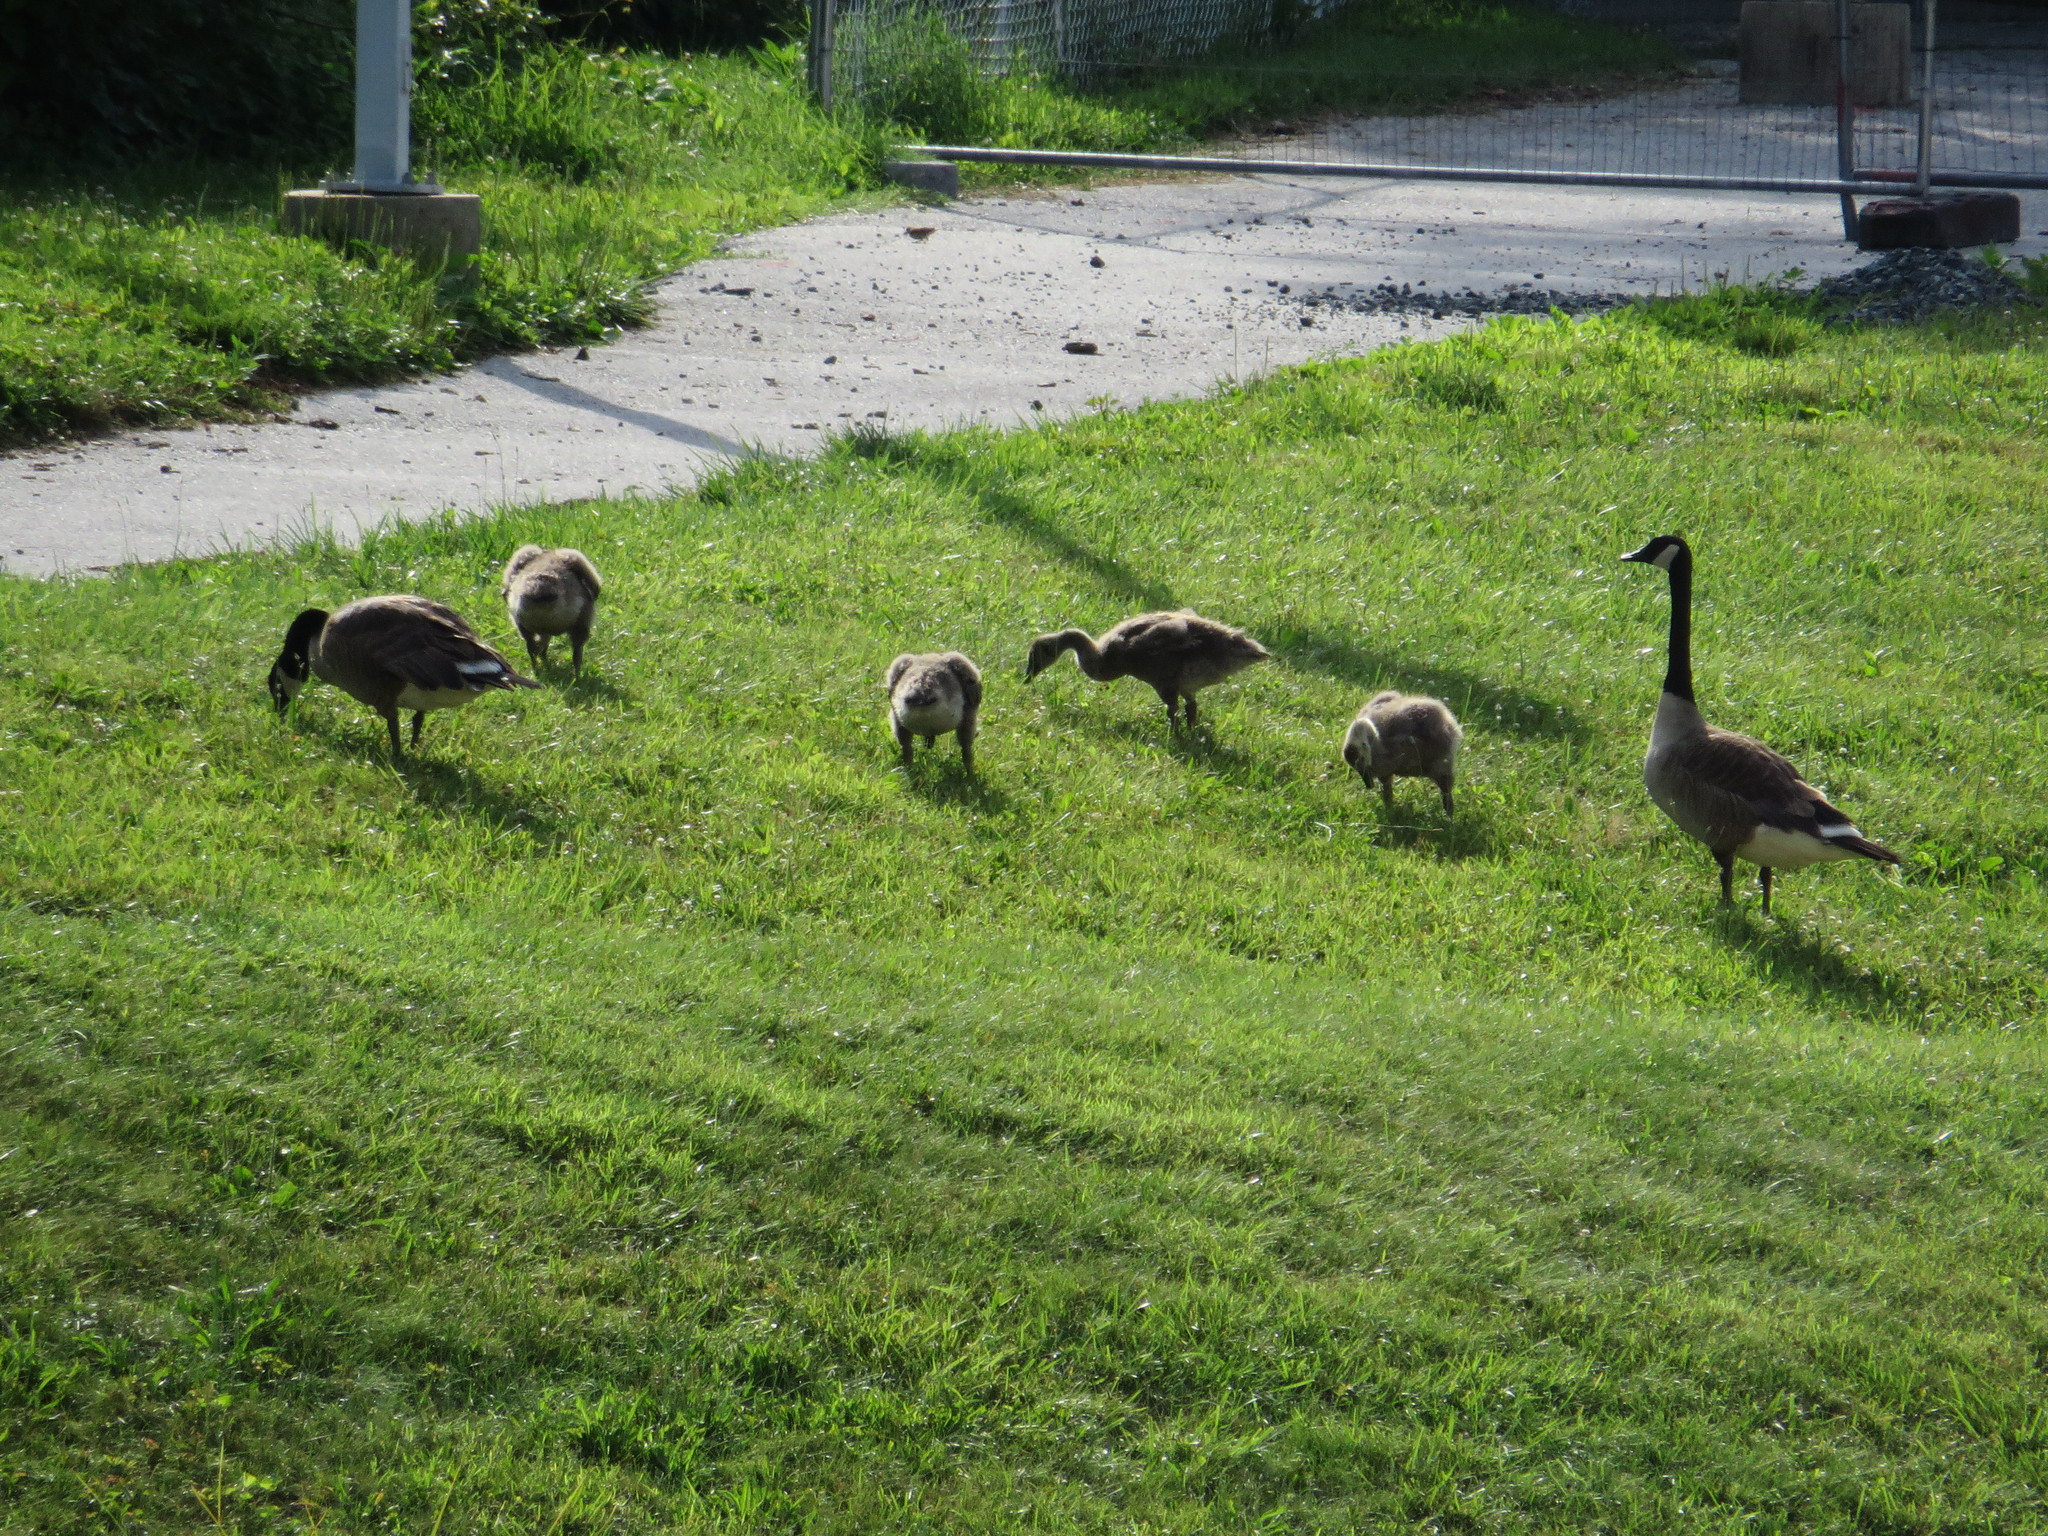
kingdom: Animalia
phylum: Chordata
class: Aves
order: Anseriformes
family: Anatidae
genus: Branta
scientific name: Branta canadensis
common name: Canada goose
